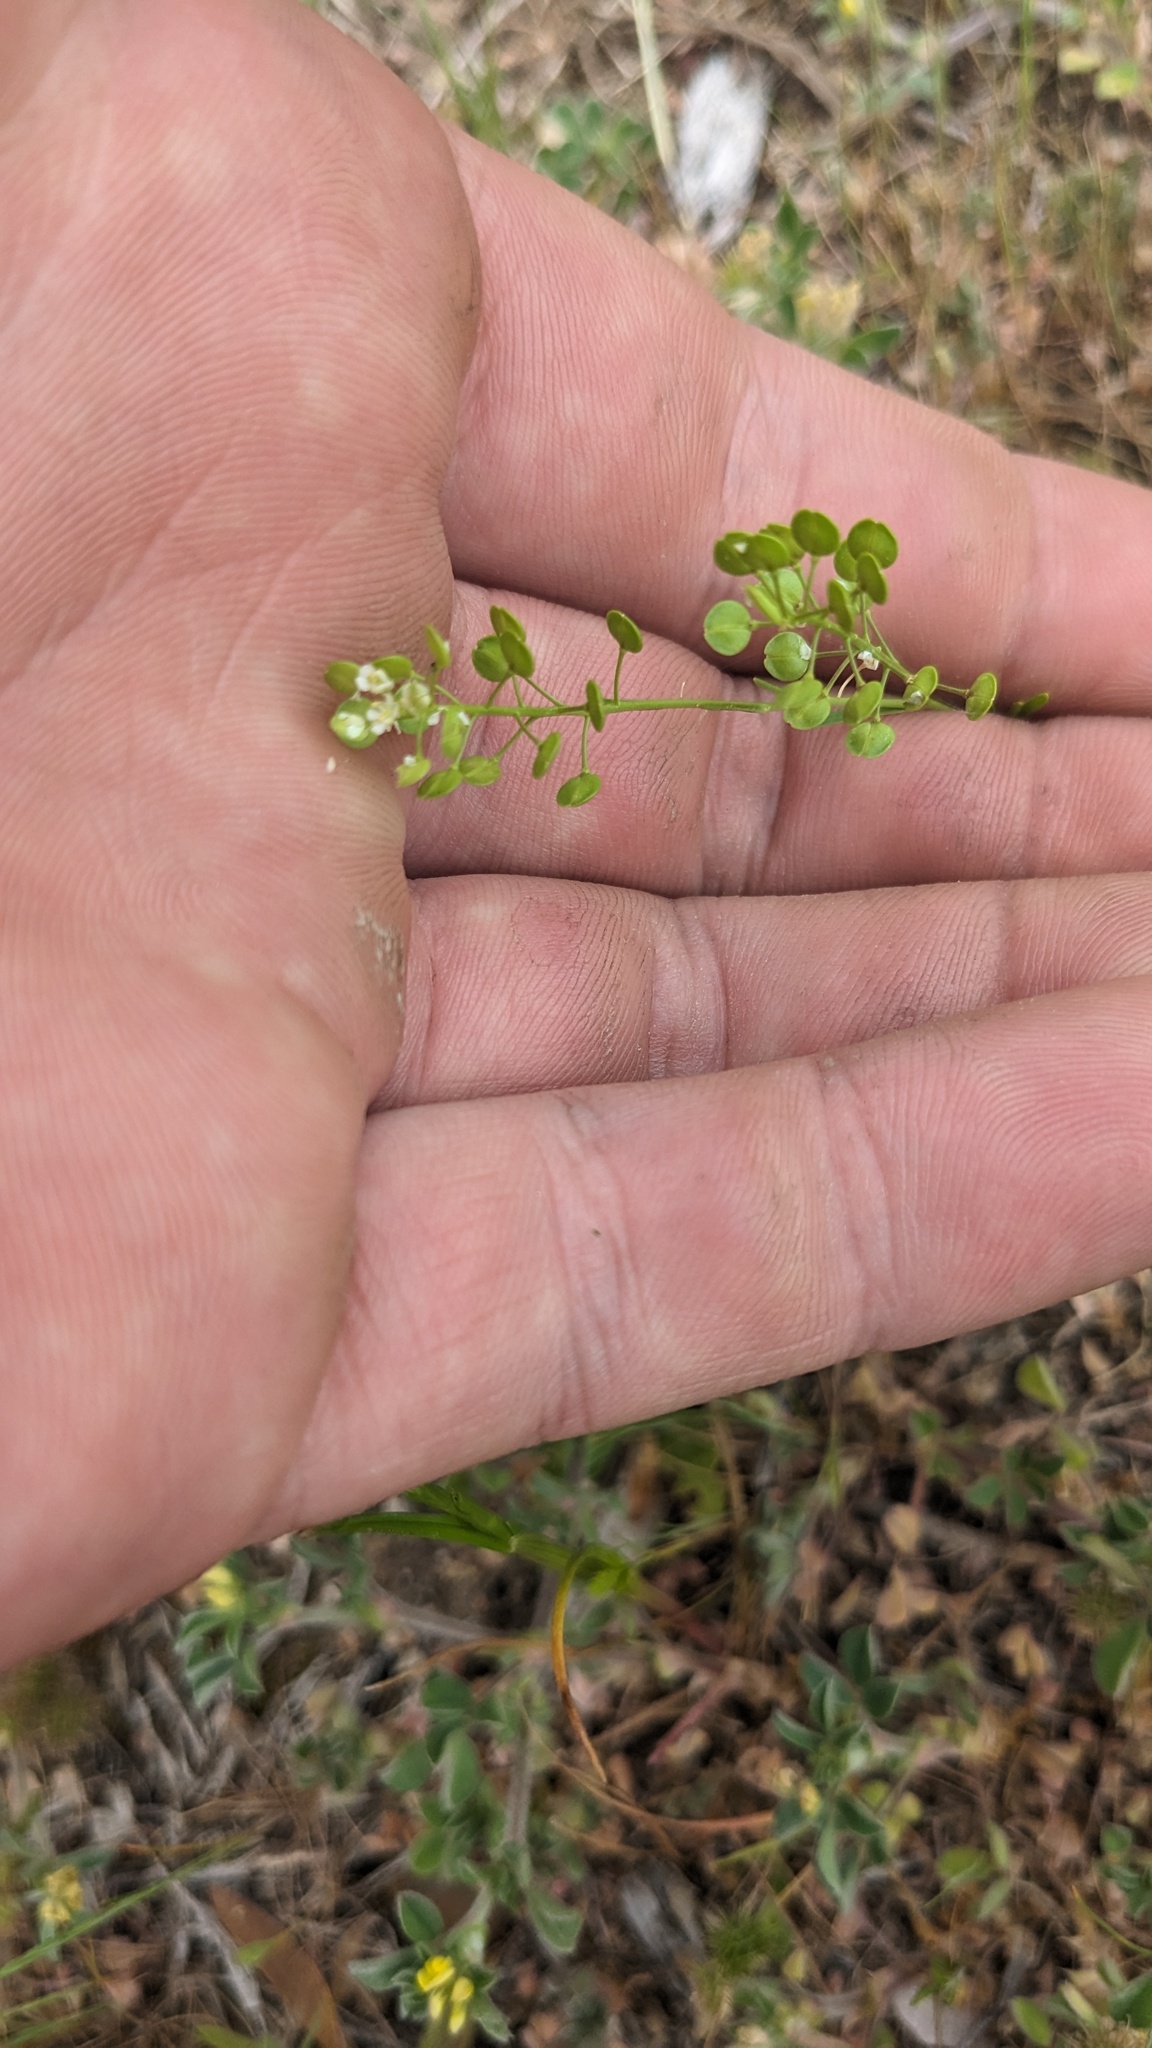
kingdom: Plantae
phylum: Tracheophyta
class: Magnoliopsida
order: Brassicales
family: Brassicaceae
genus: Lepidium
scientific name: Lepidium virginicum
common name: Least pepperwort
